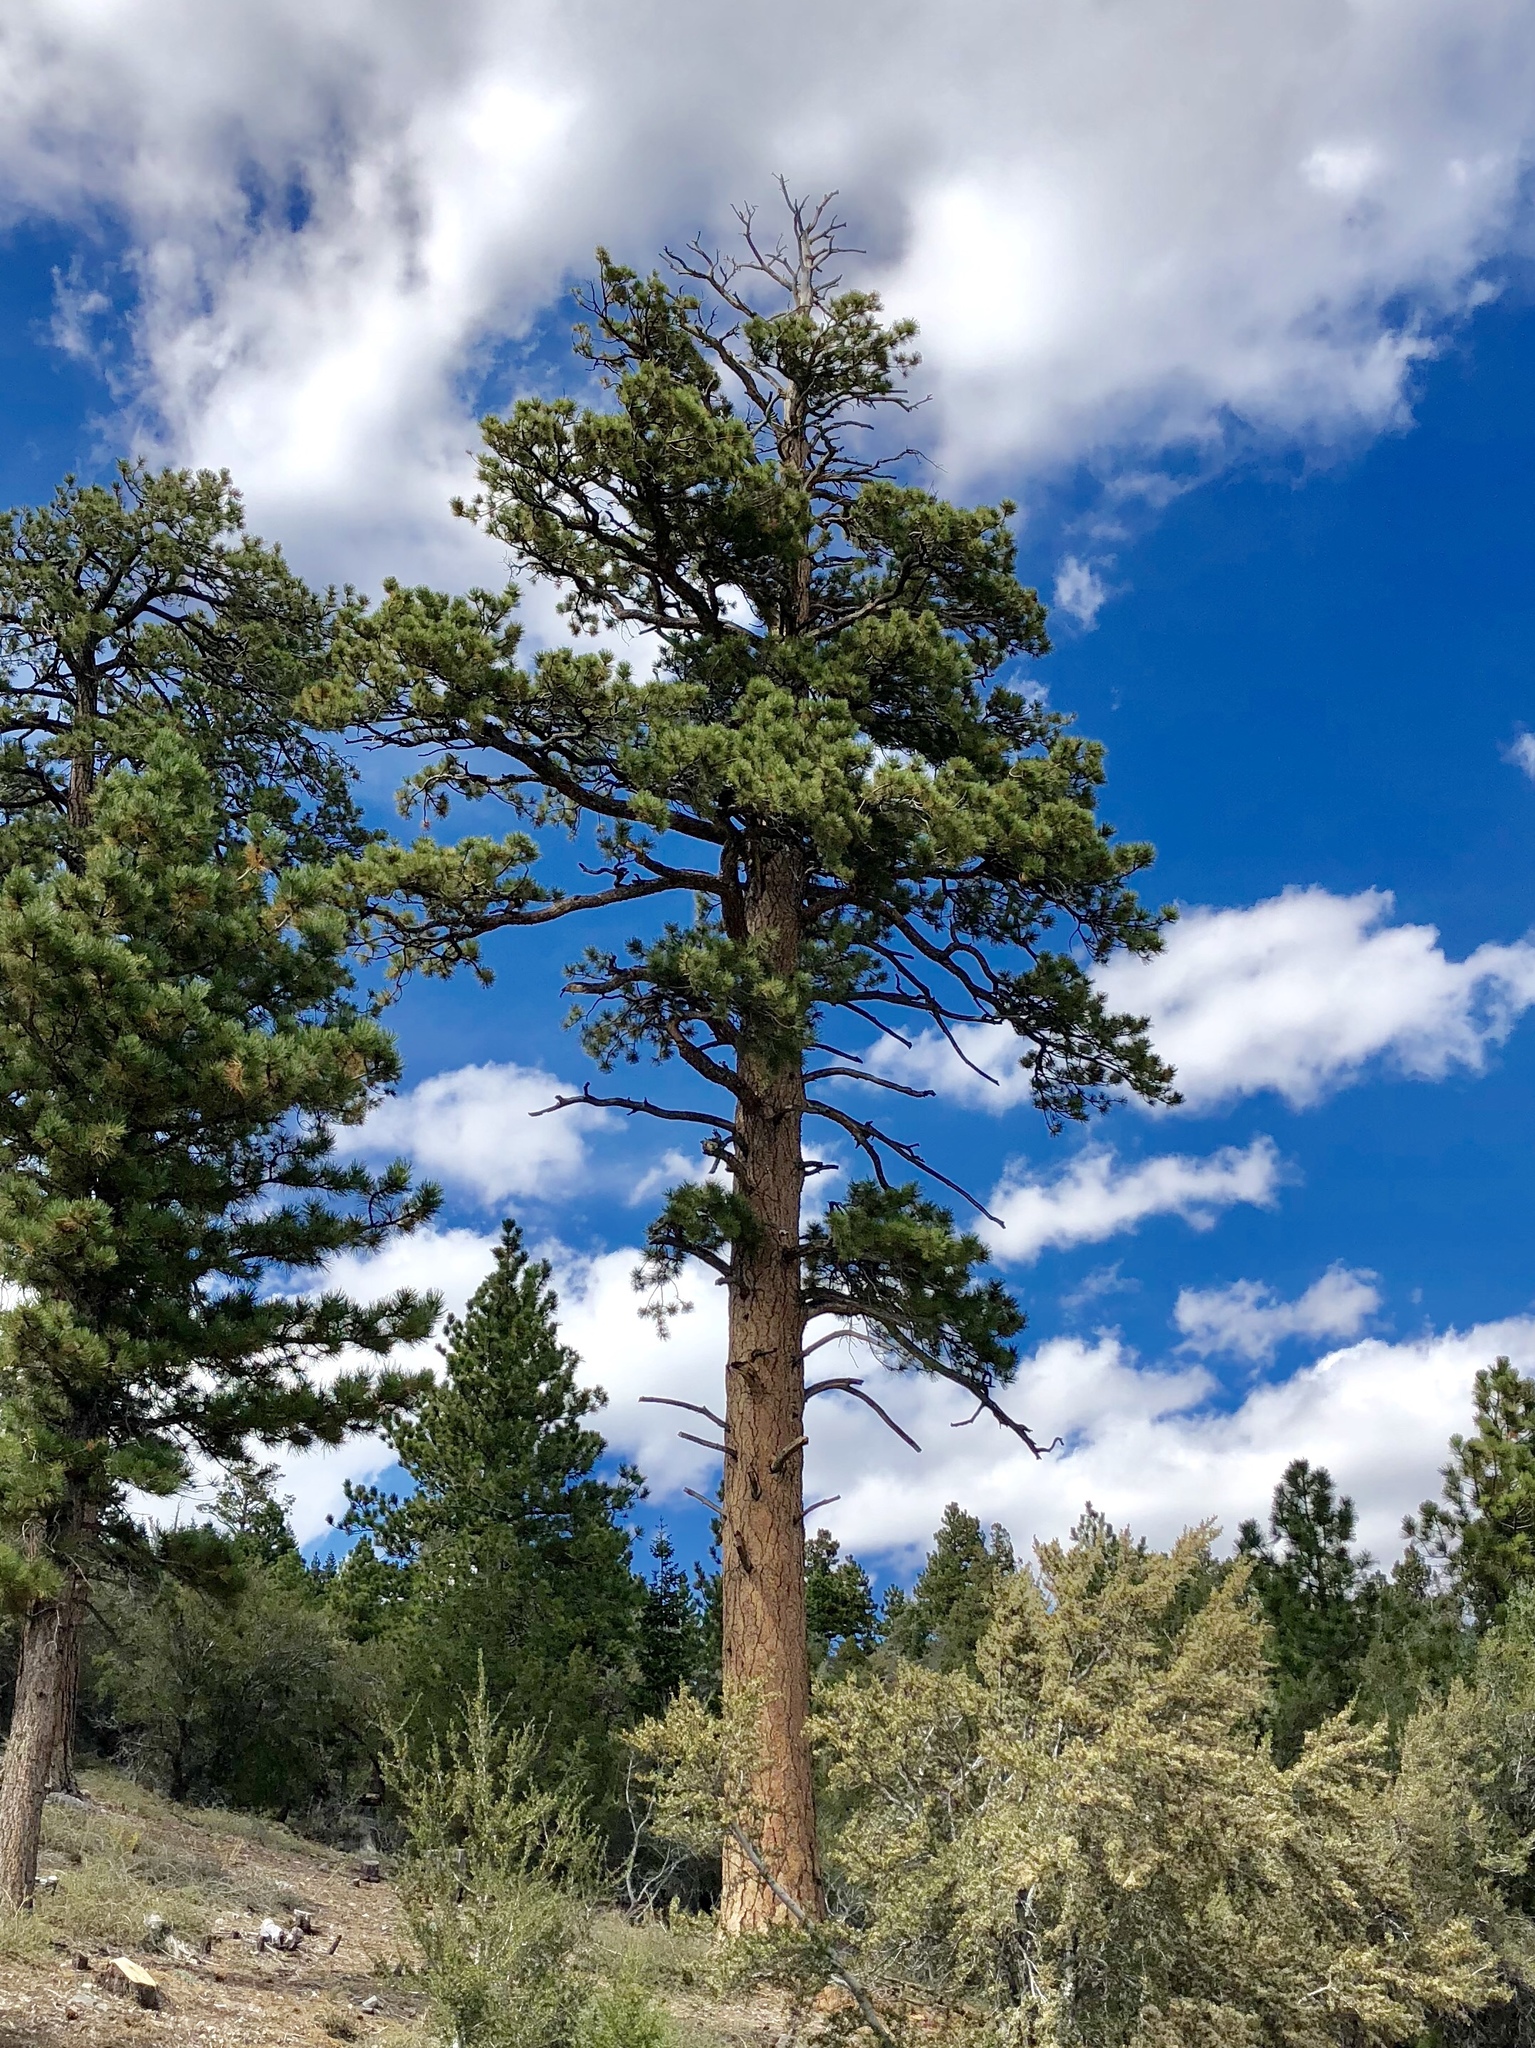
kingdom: Plantae
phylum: Tracheophyta
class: Pinopsida
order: Pinales
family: Pinaceae
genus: Pinus
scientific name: Pinus ponderosa
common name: Western yellow-pine
